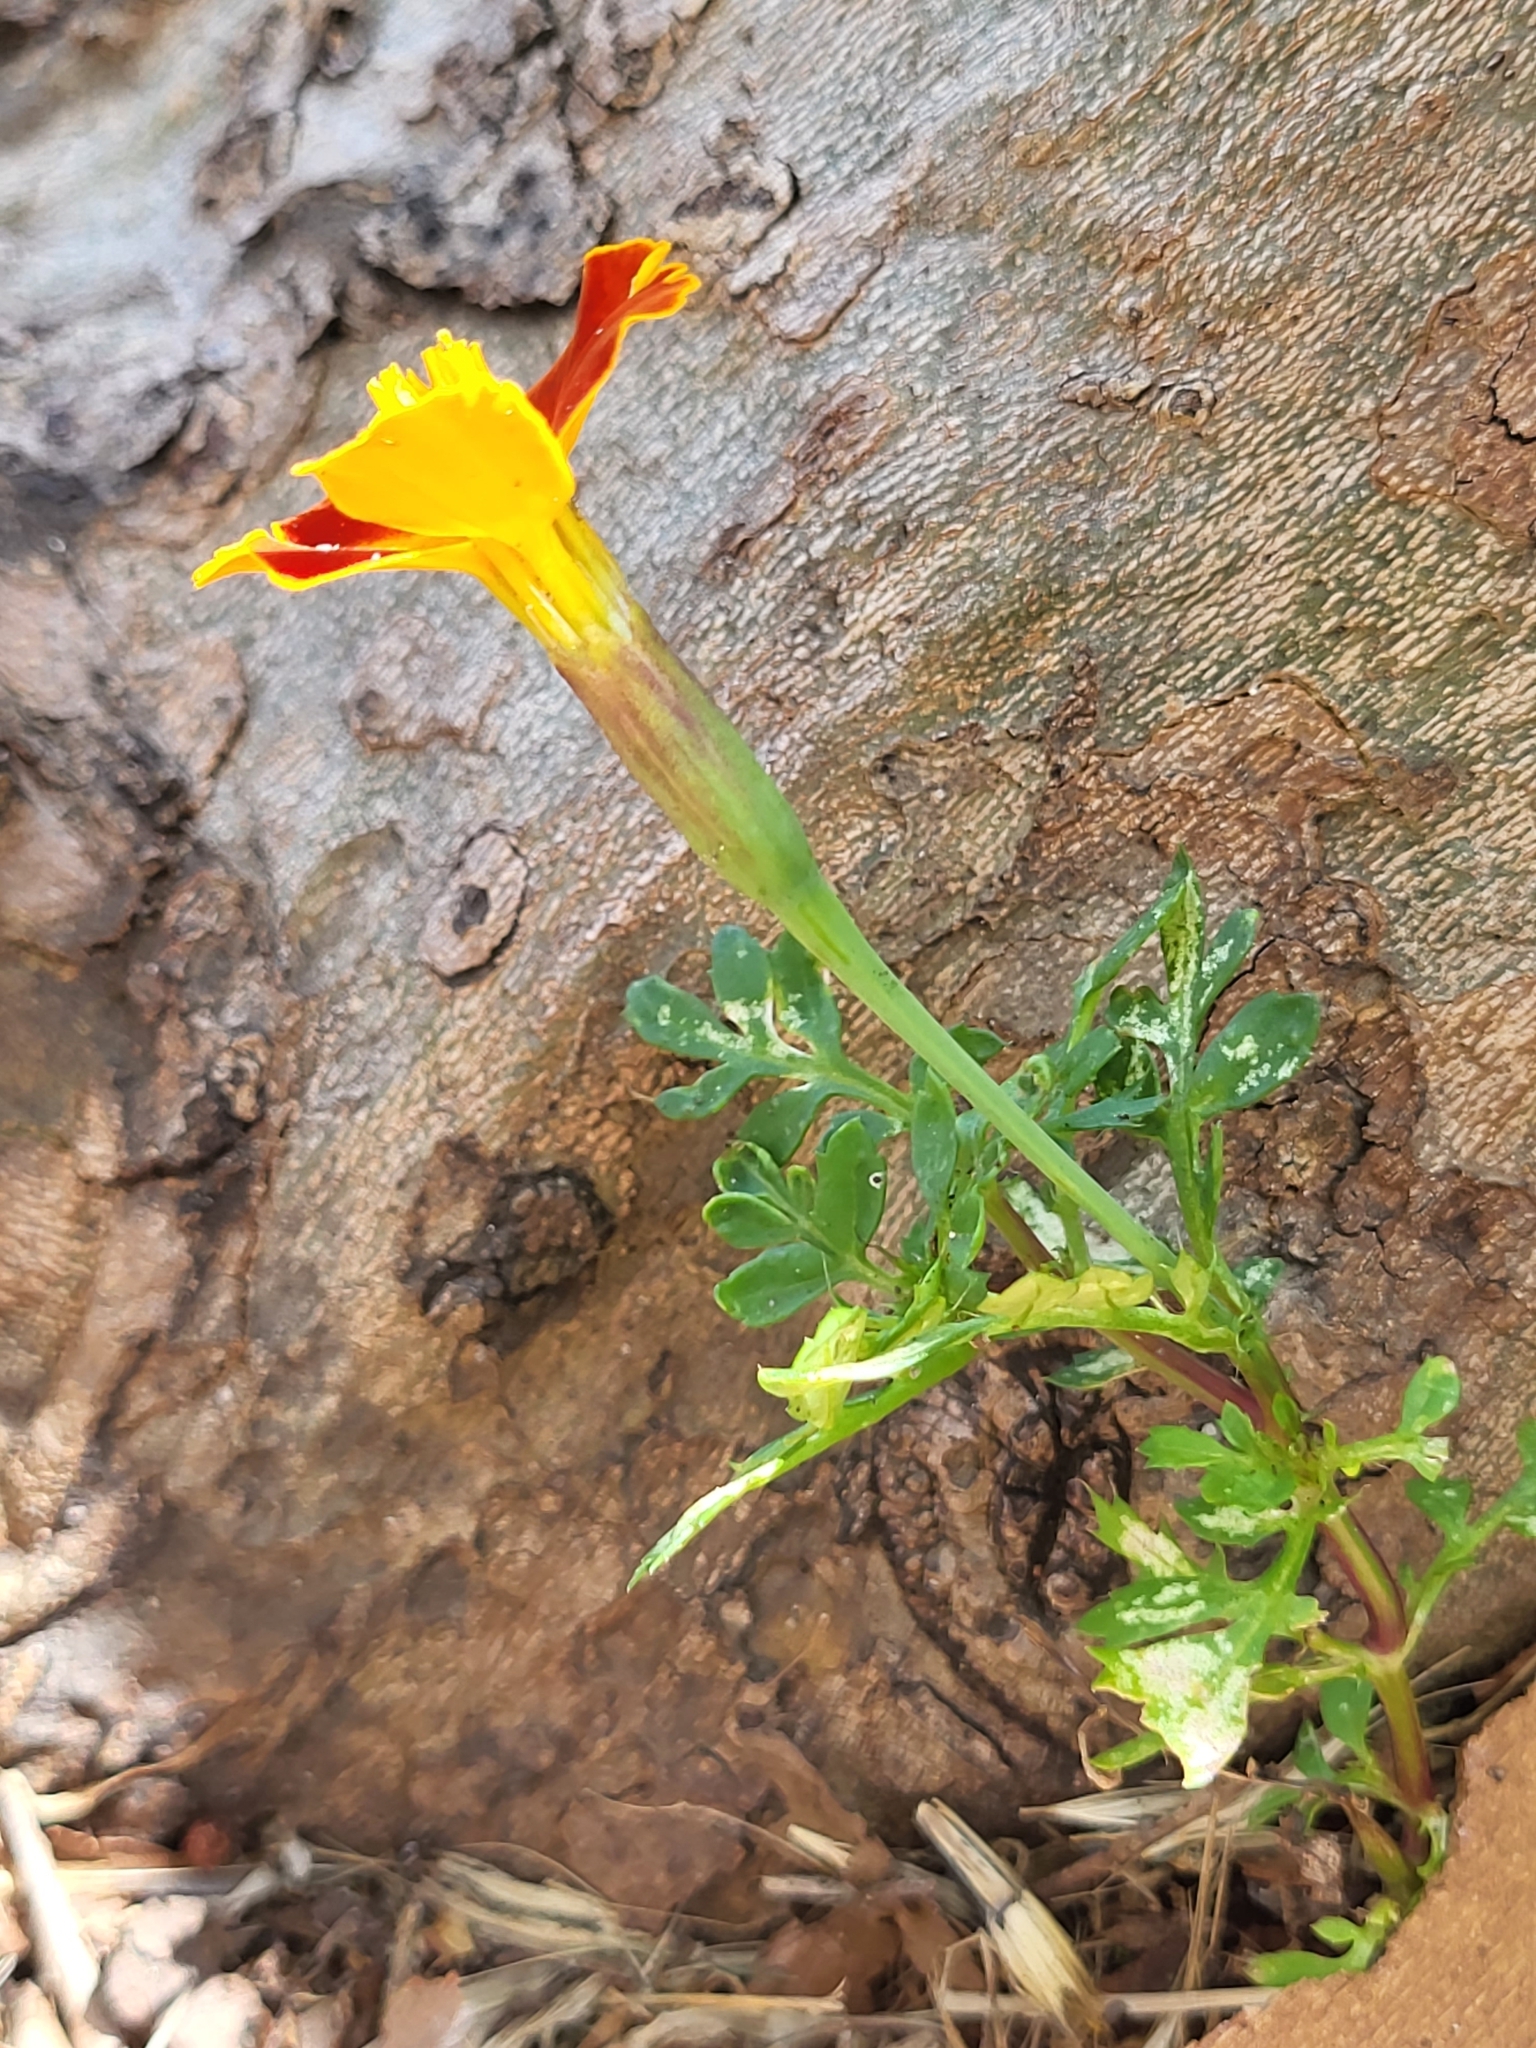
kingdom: Plantae
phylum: Tracheophyta
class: Magnoliopsida
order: Asterales
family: Asteraceae
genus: Tagetes
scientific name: Tagetes erecta
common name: African marigold
